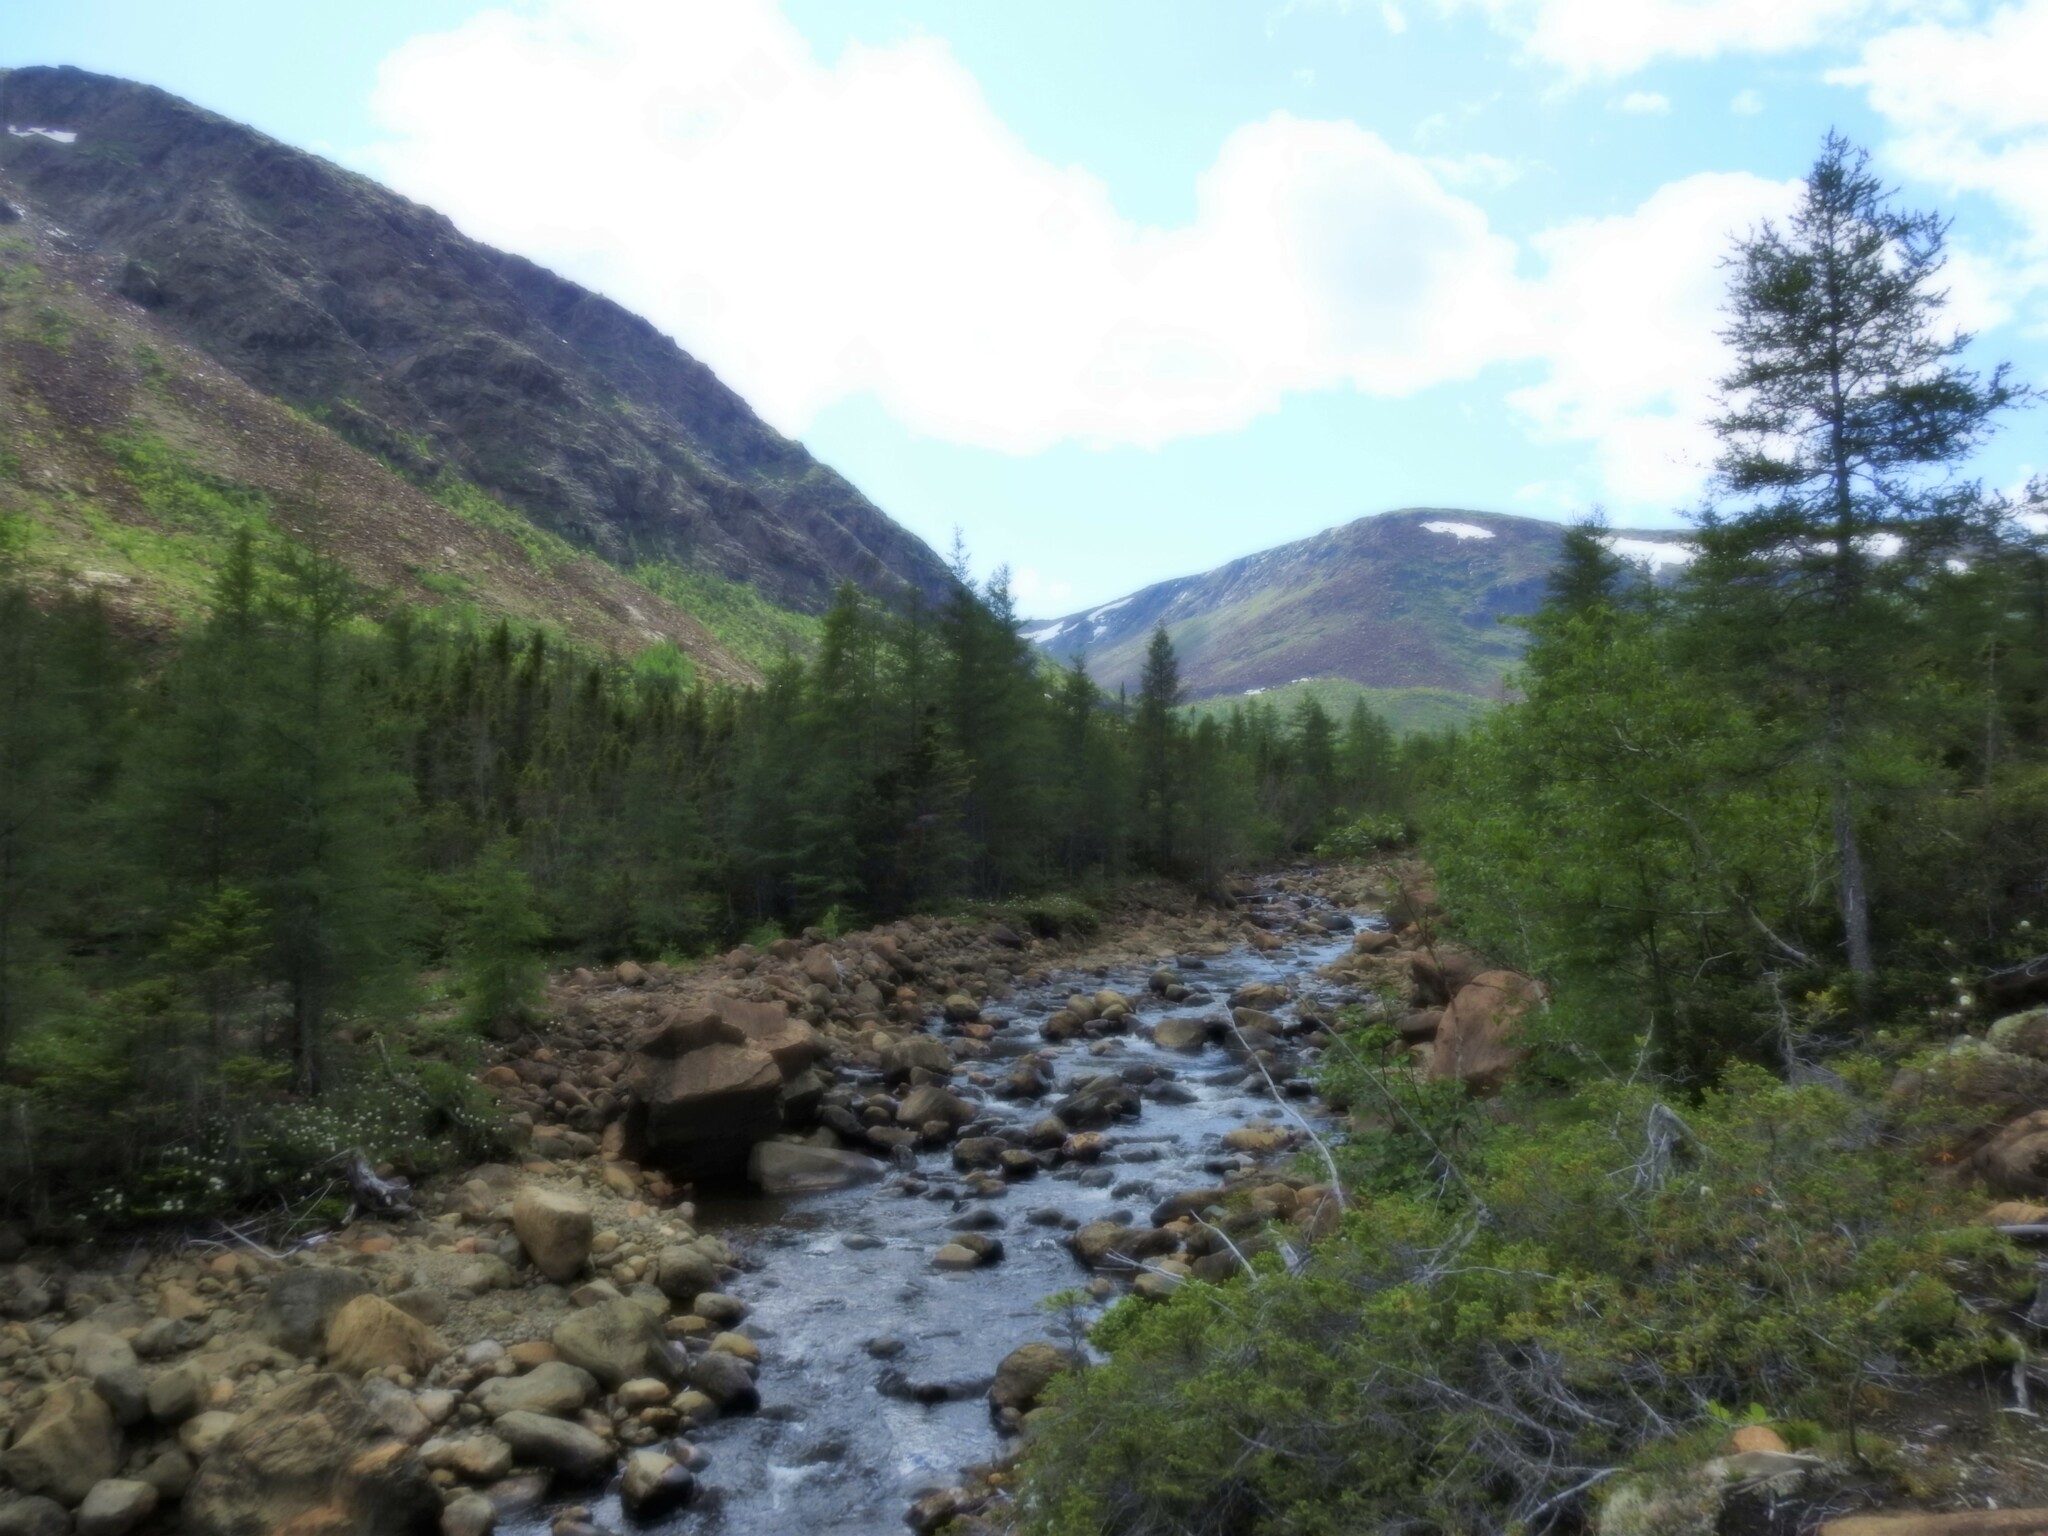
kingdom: Plantae
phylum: Tracheophyta
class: Pinopsida
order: Pinales
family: Pinaceae
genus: Larix
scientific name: Larix laricina
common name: American larch
